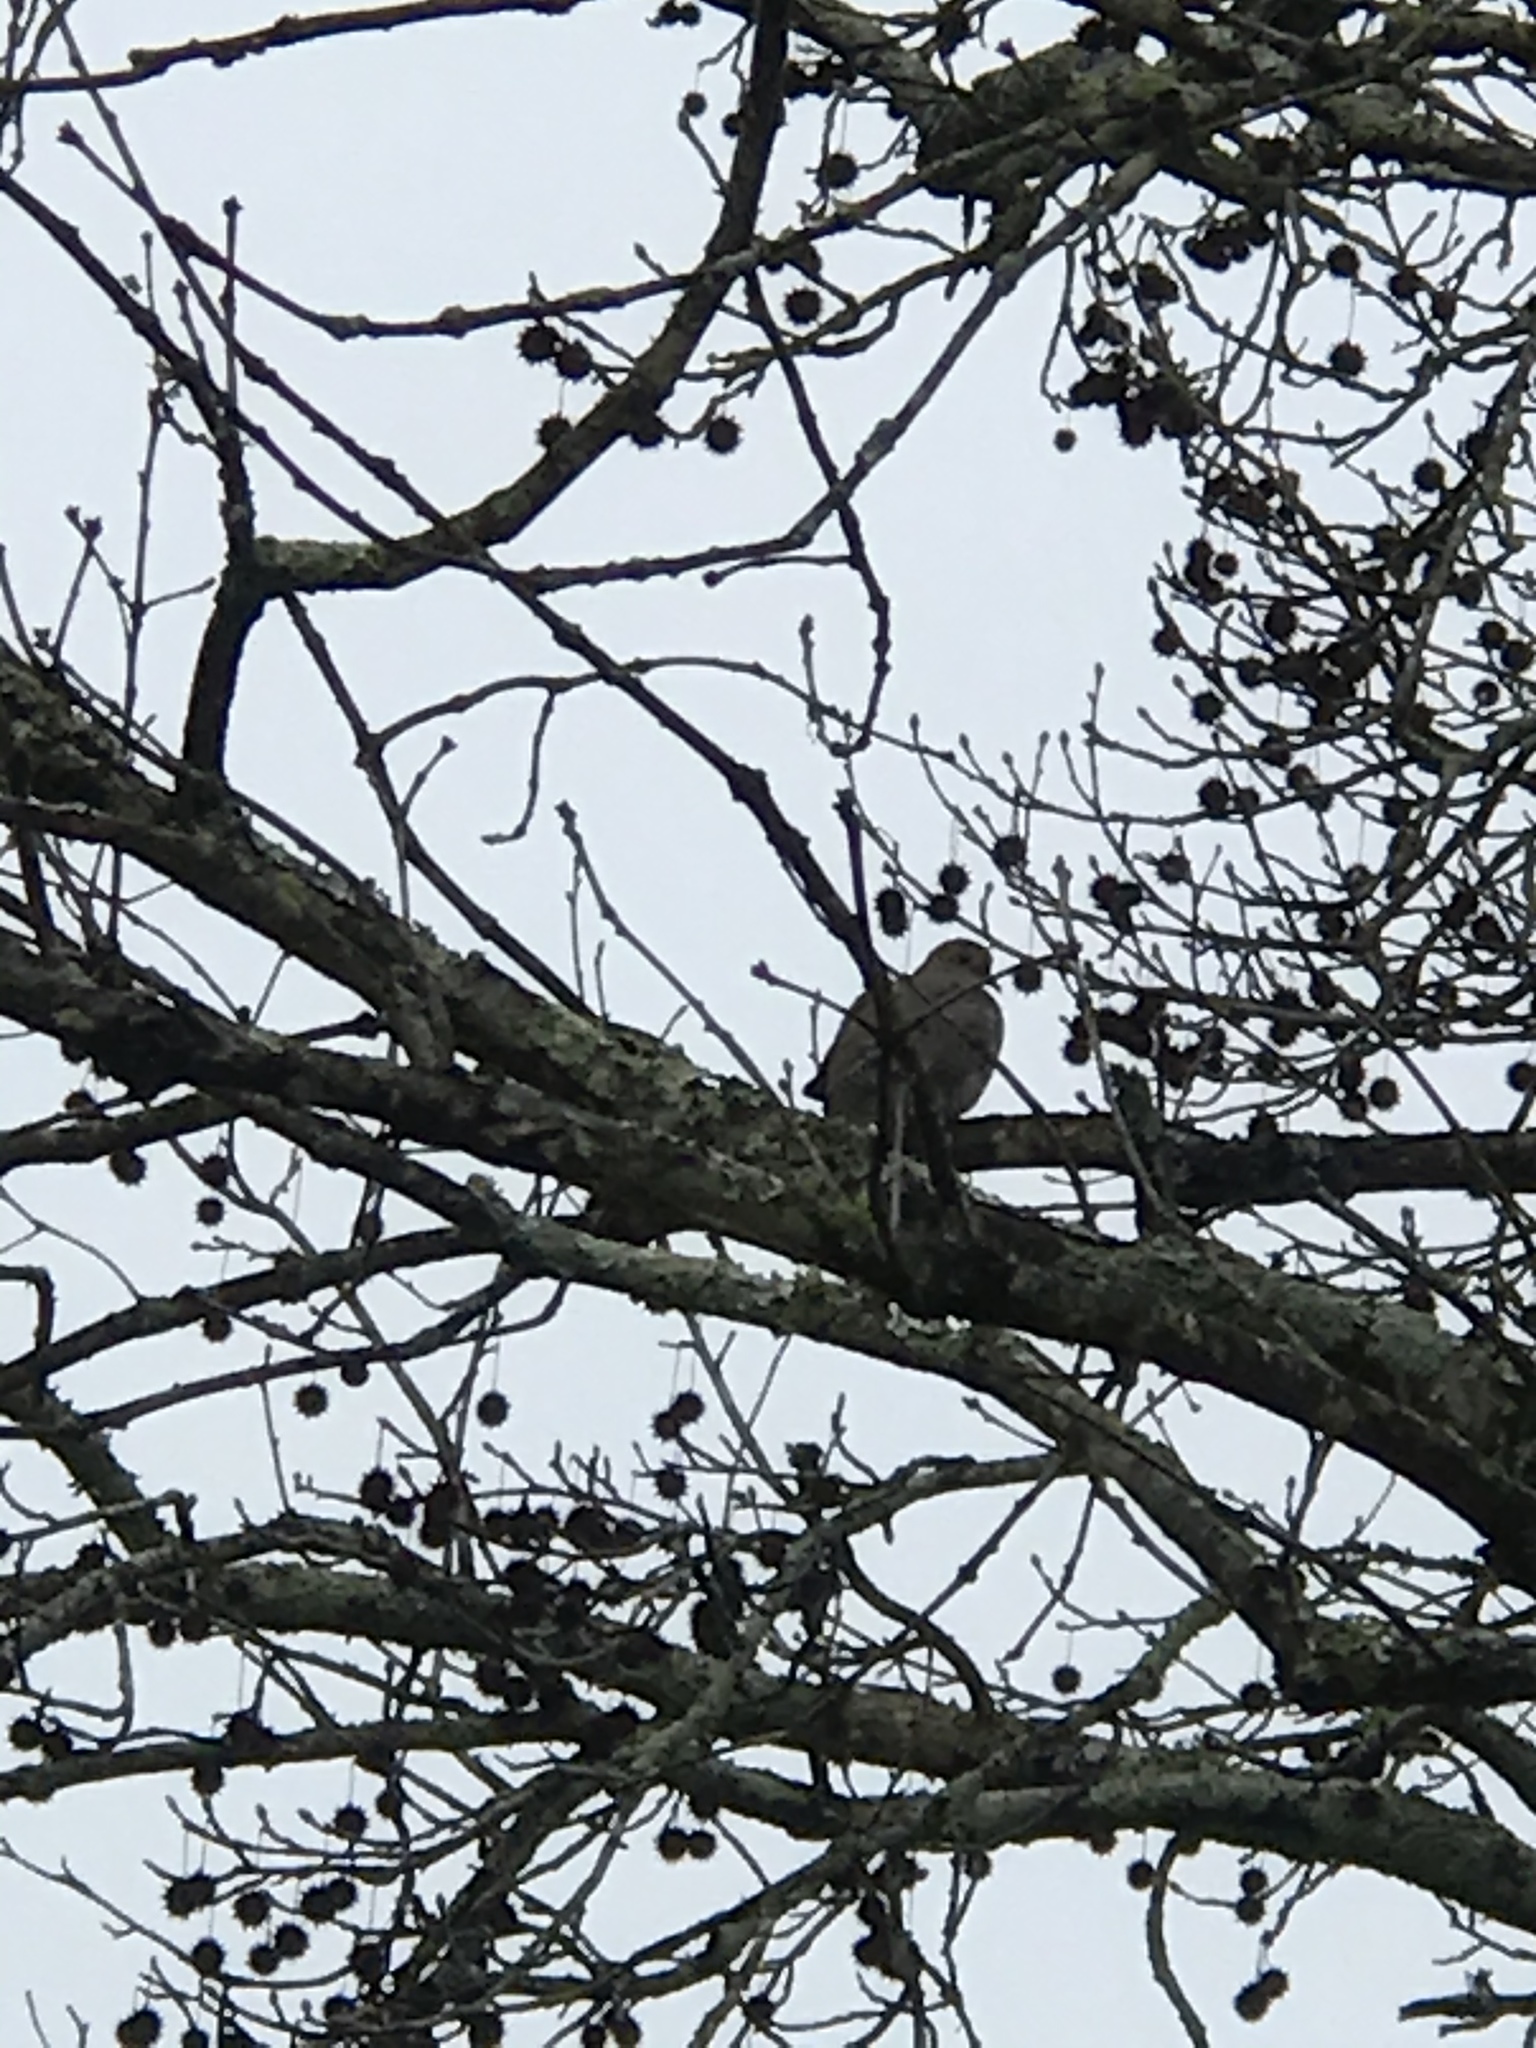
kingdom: Animalia
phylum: Chordata
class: Aves
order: Columbiformes
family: Columbidae
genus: Zenaida
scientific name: Zenaida macroura
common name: Mourning dove
